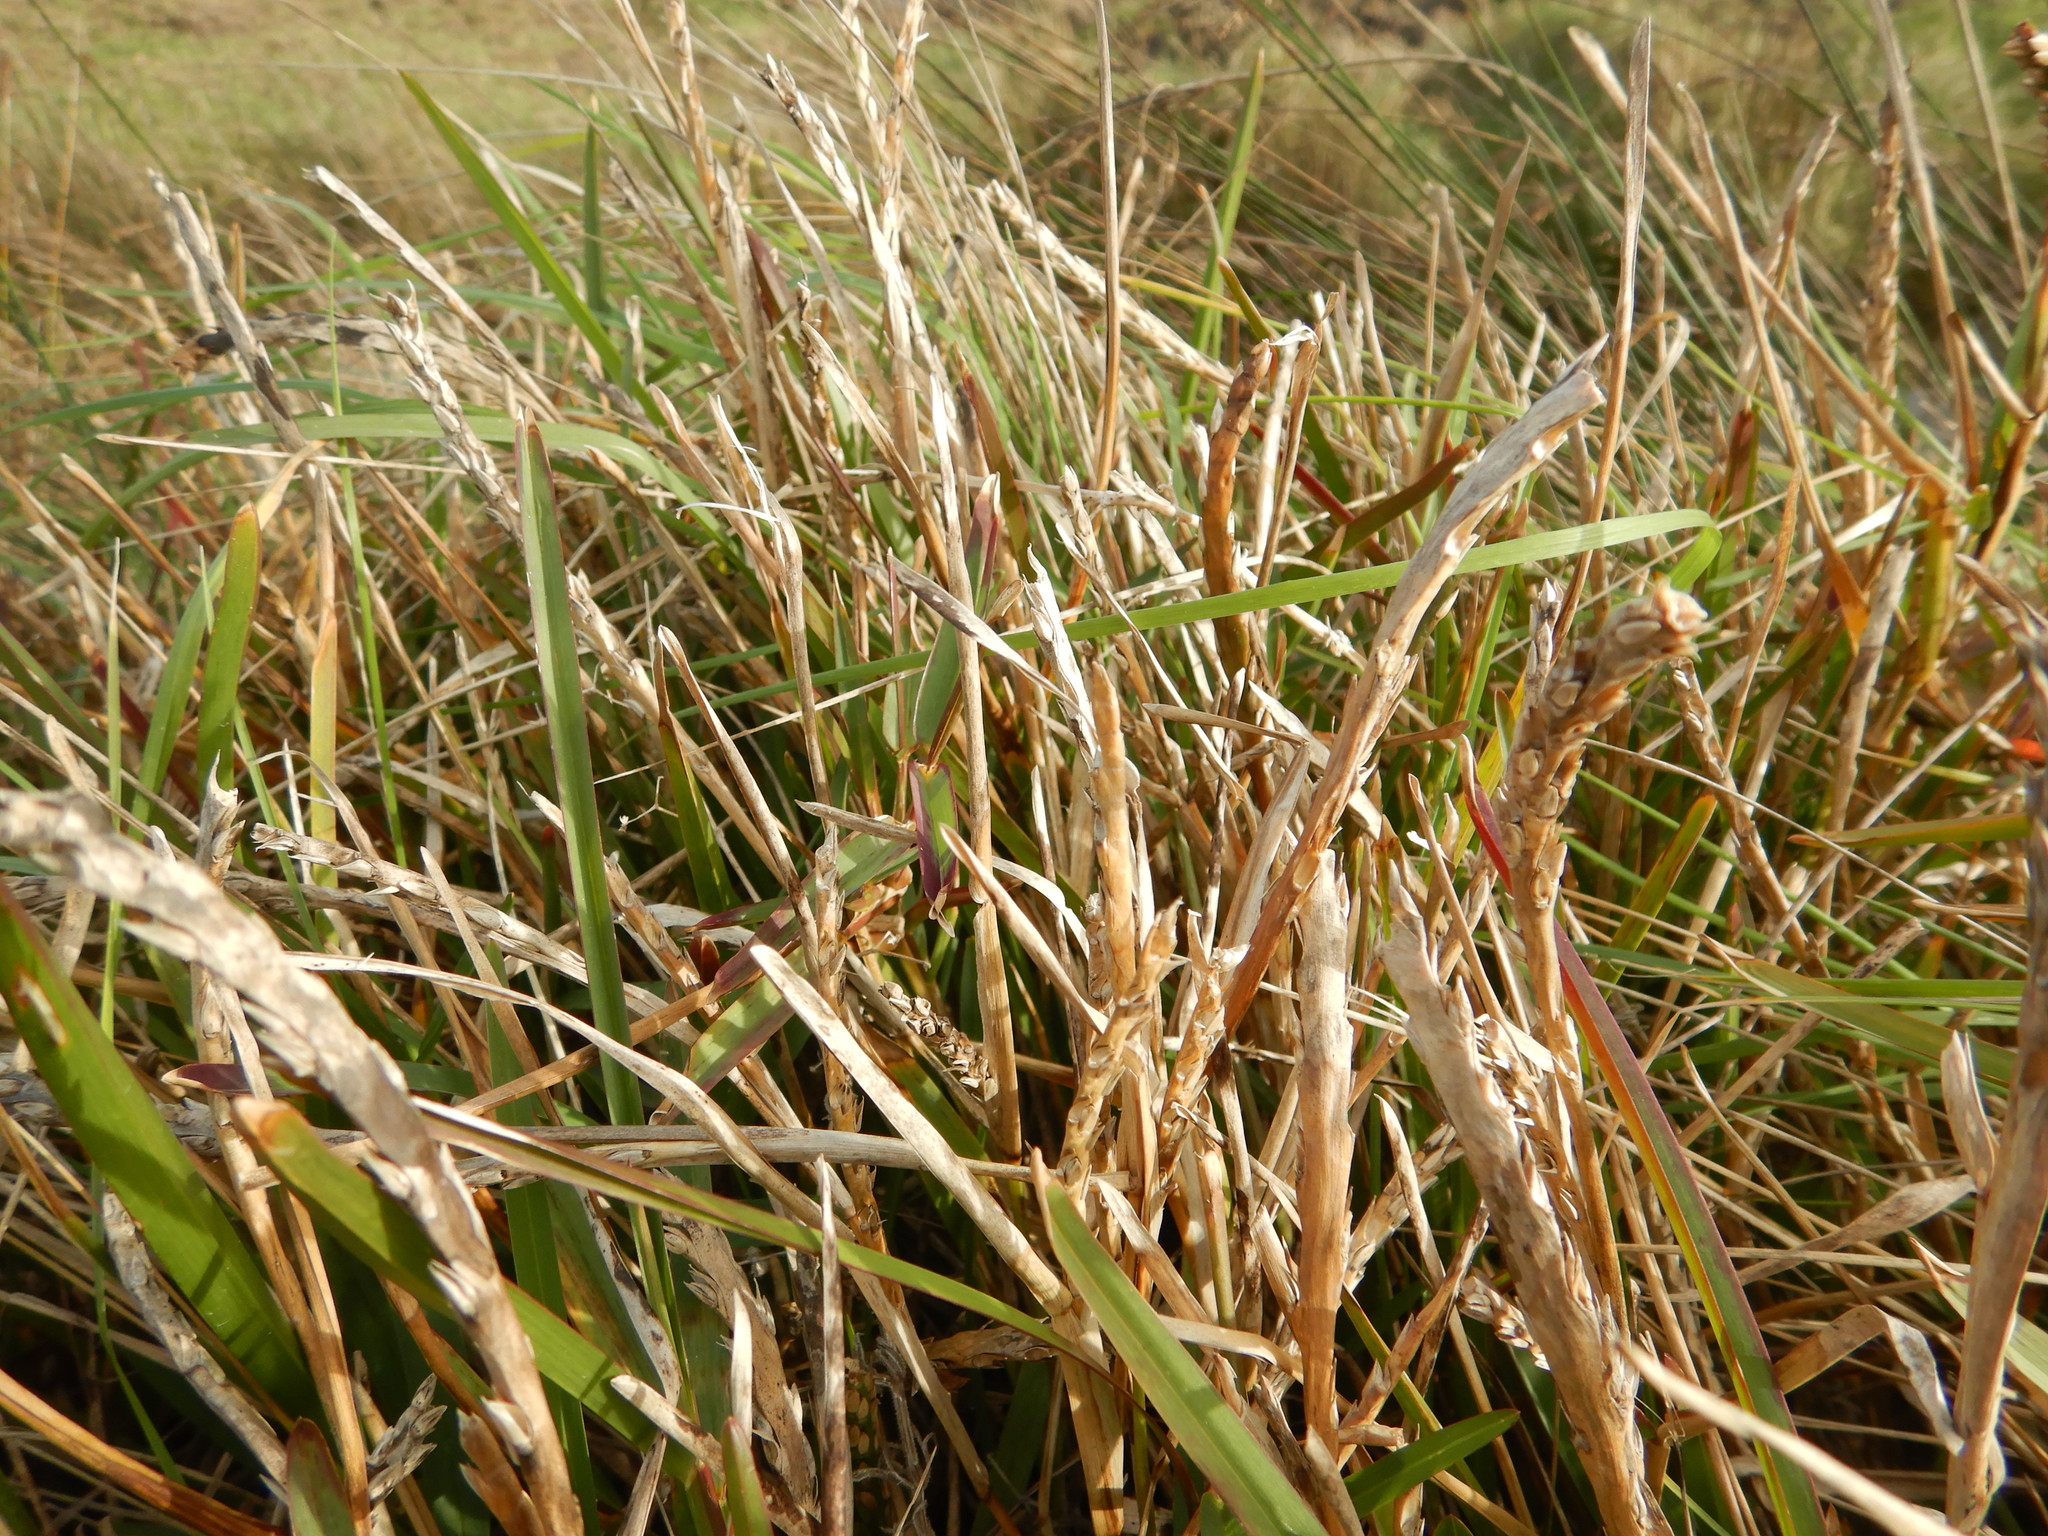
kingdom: Plantae
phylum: Tracheophyta
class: Liliopsida
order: Poales
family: Poaceae
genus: Stenotaphrum
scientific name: Stenotaphrum secundatum
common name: St. augustine grass
